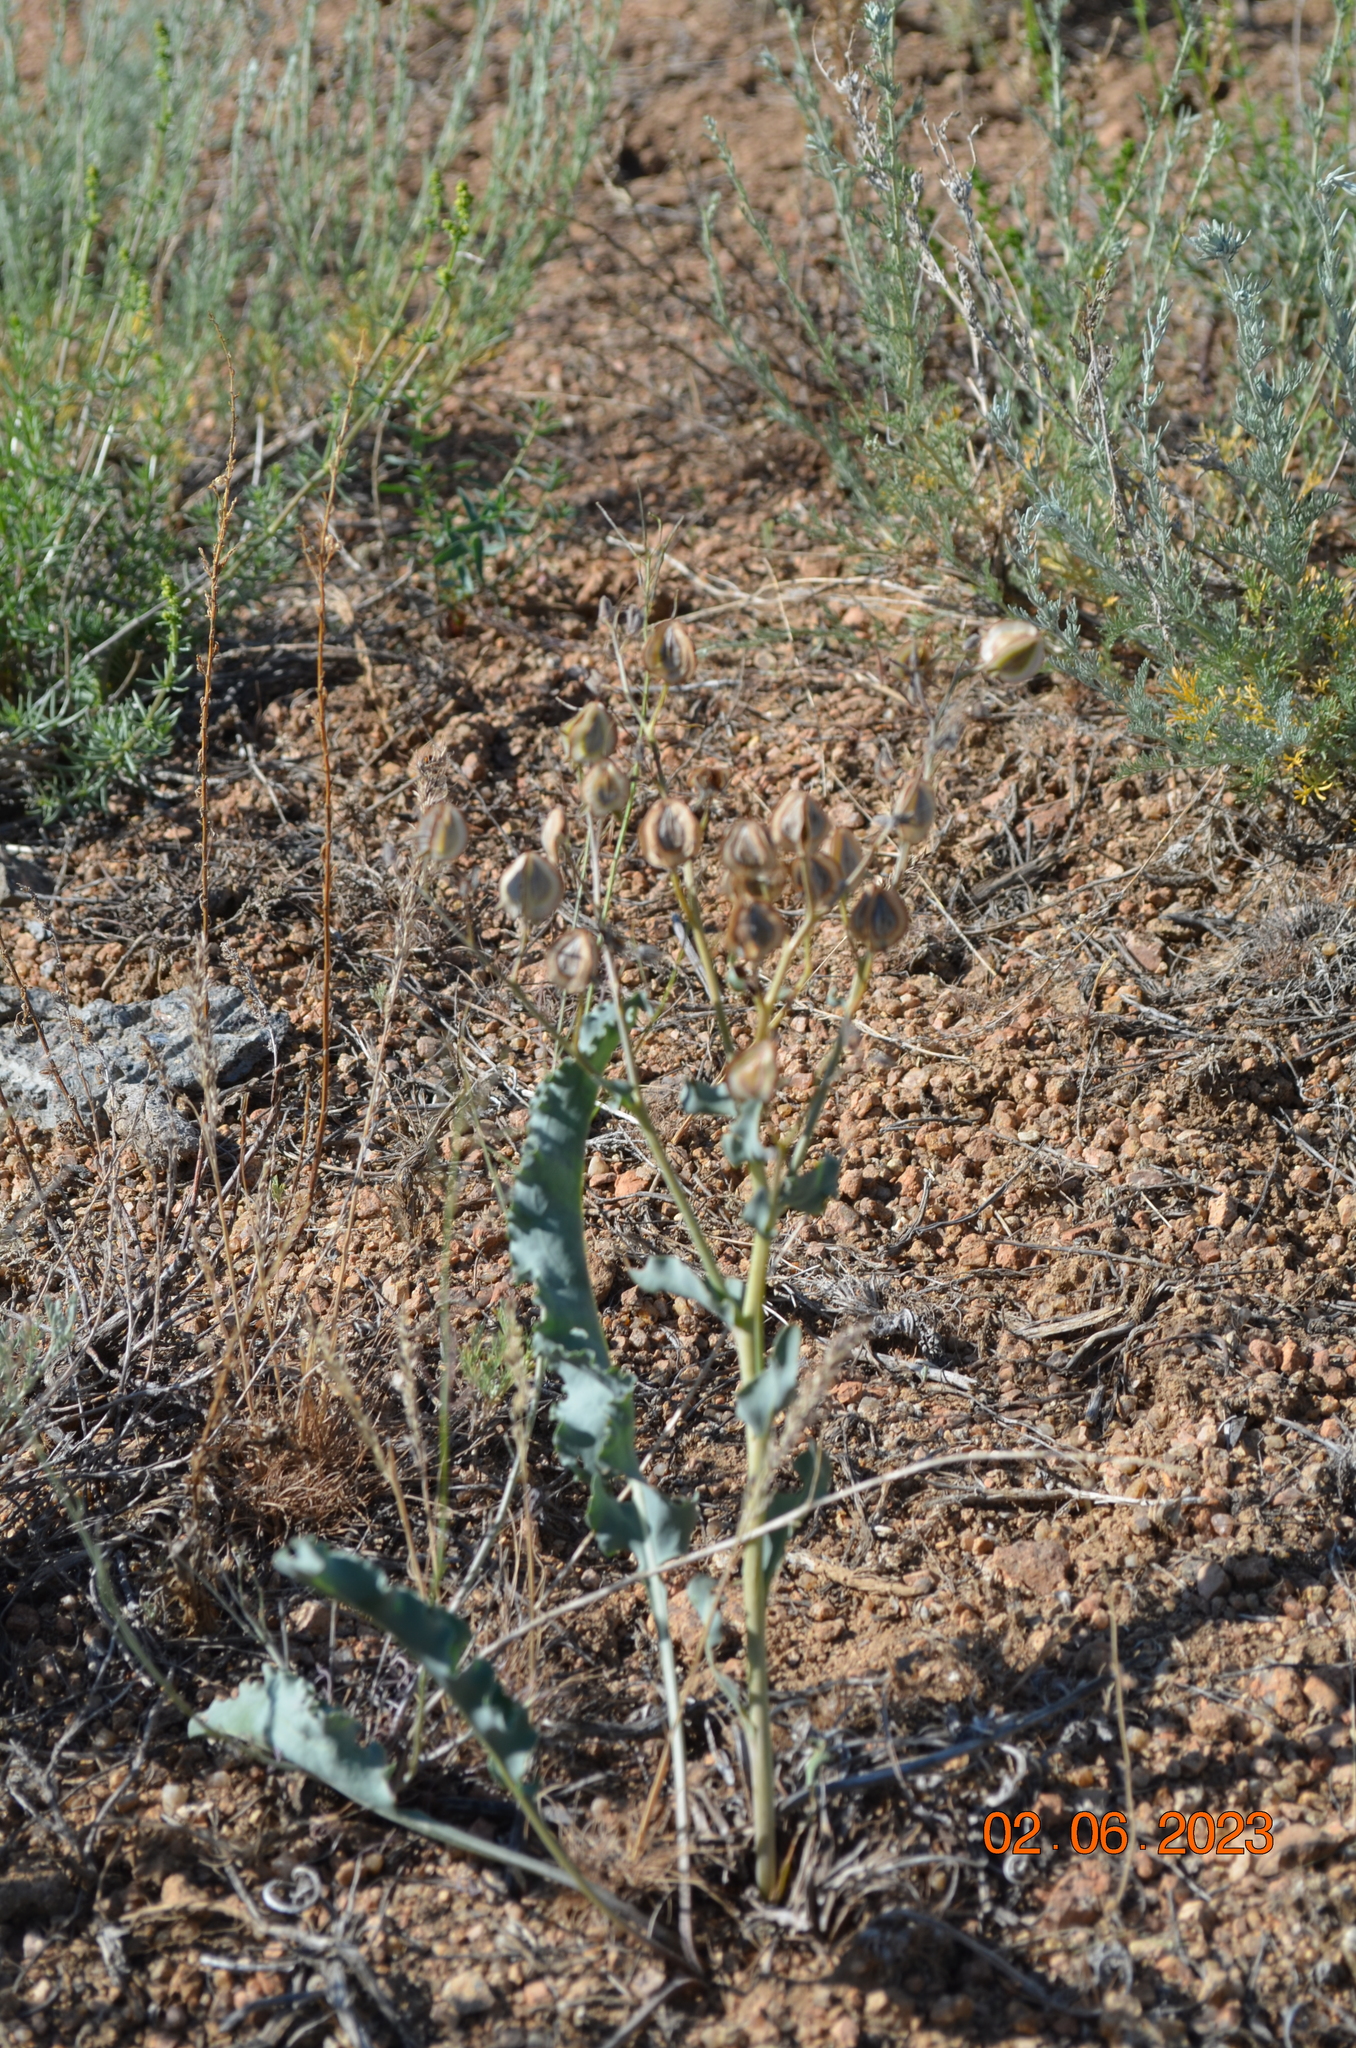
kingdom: Plantae
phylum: Tracheophyta
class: Magnoliopsida
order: Boraginales
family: Boraginaceae
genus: Rindera
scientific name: Rindera tetraspis
